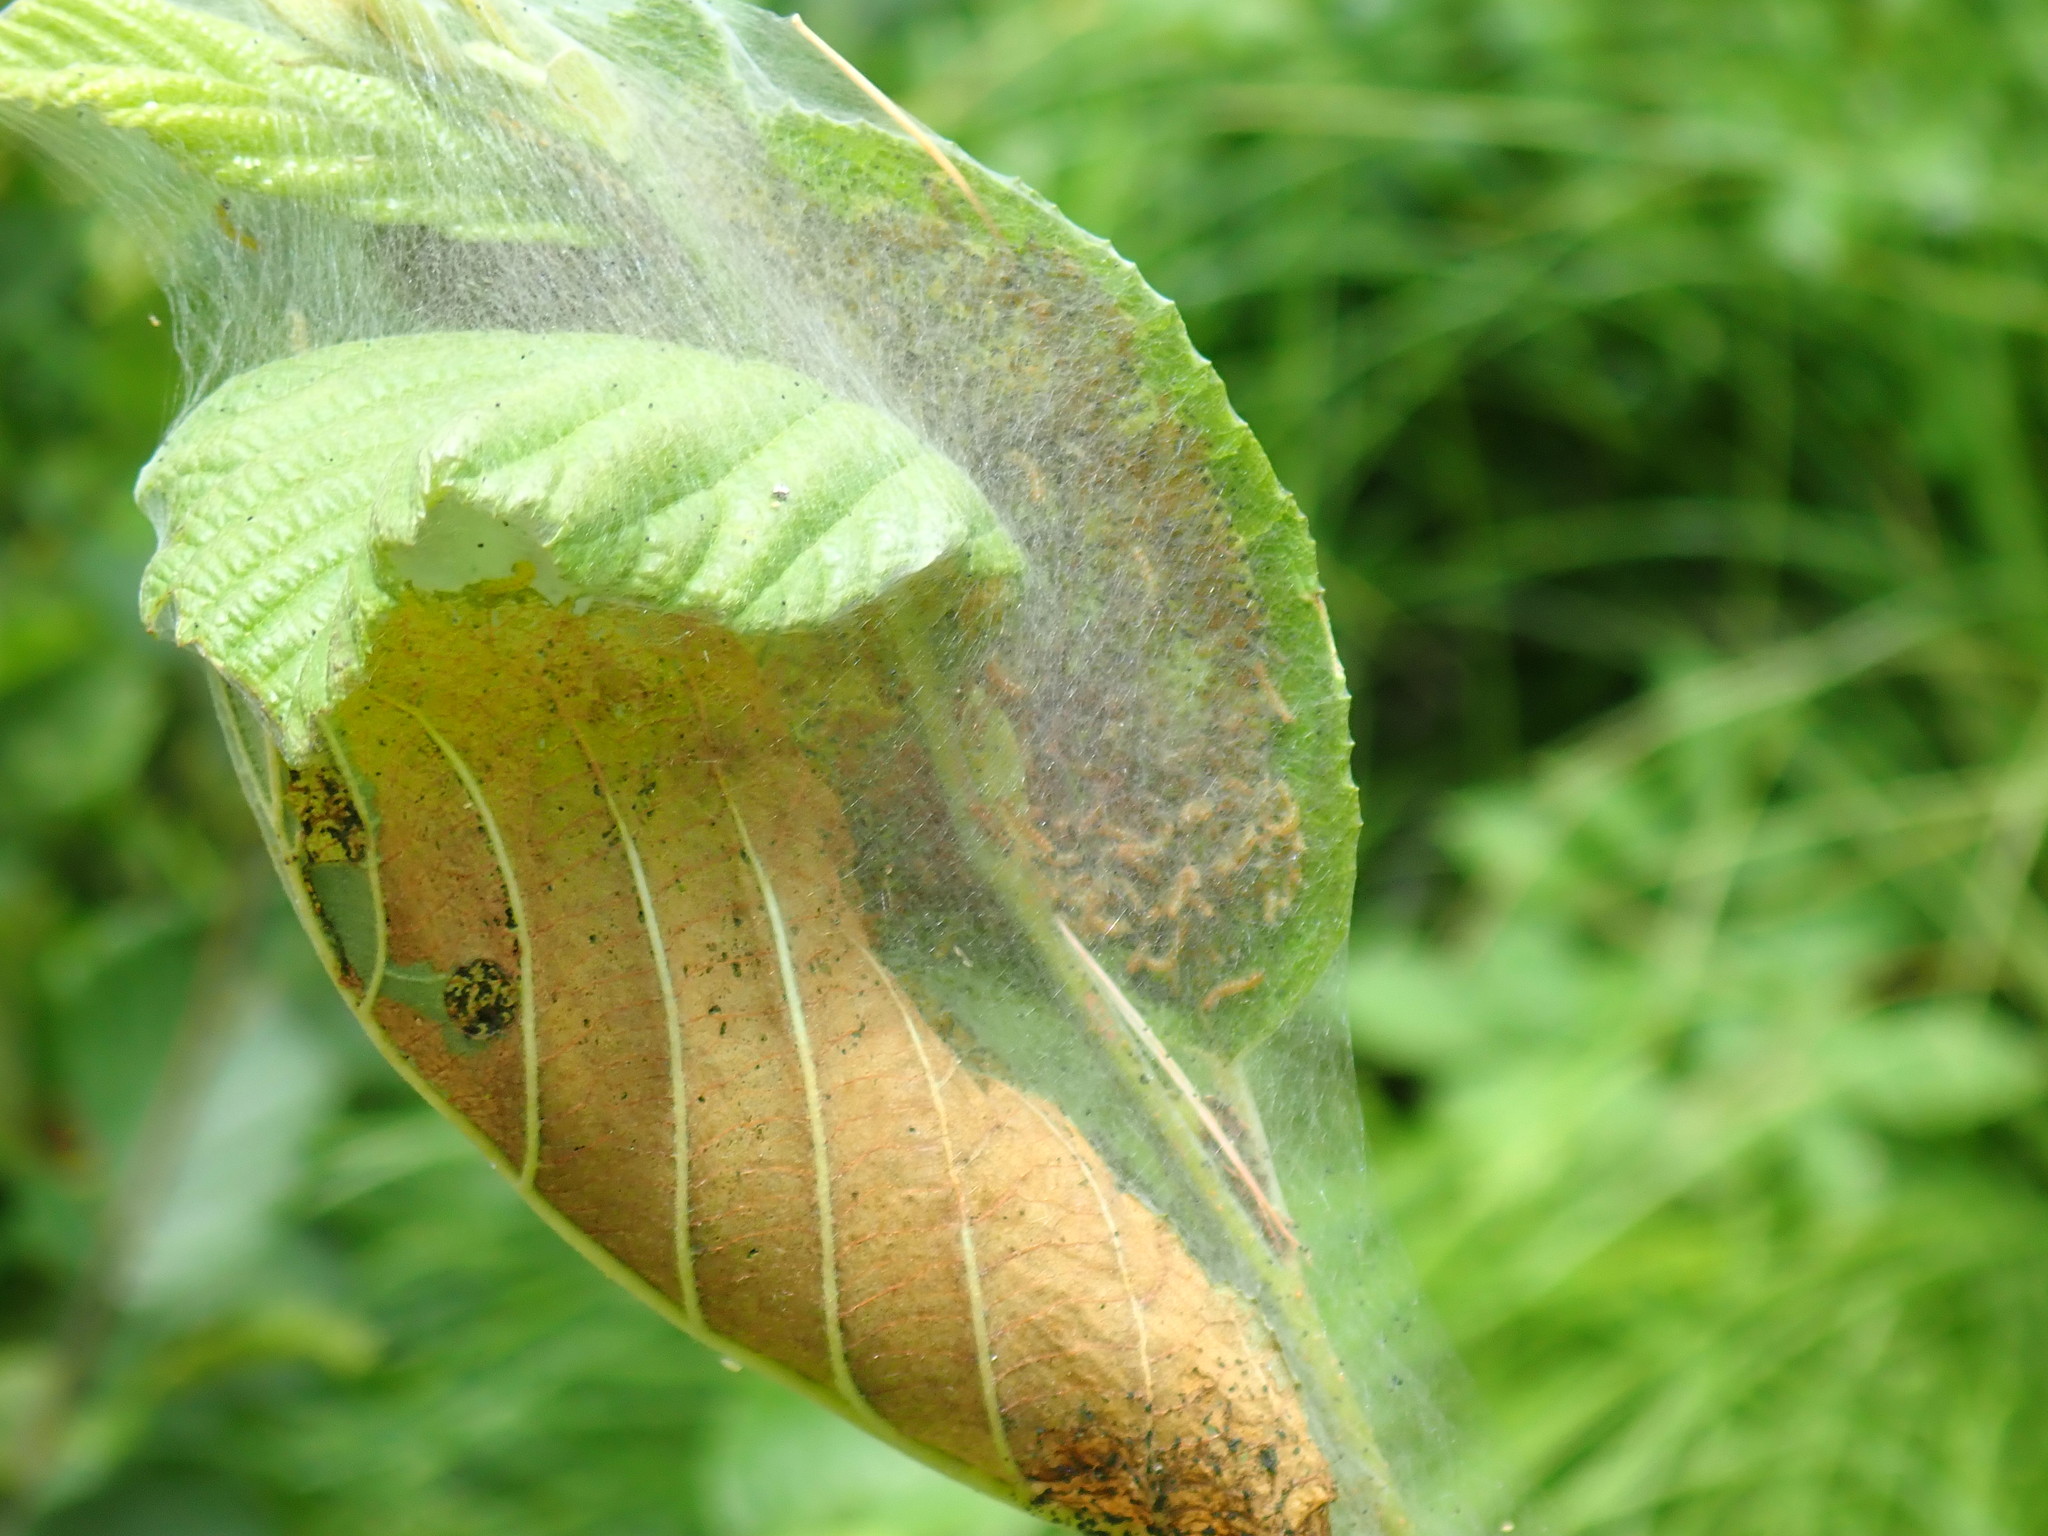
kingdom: Animalia
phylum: Arthropoda
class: Insecta
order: Lepidoptera
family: Erebidae
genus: Hyphantria
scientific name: Hyphantria cunea
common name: American white moth
